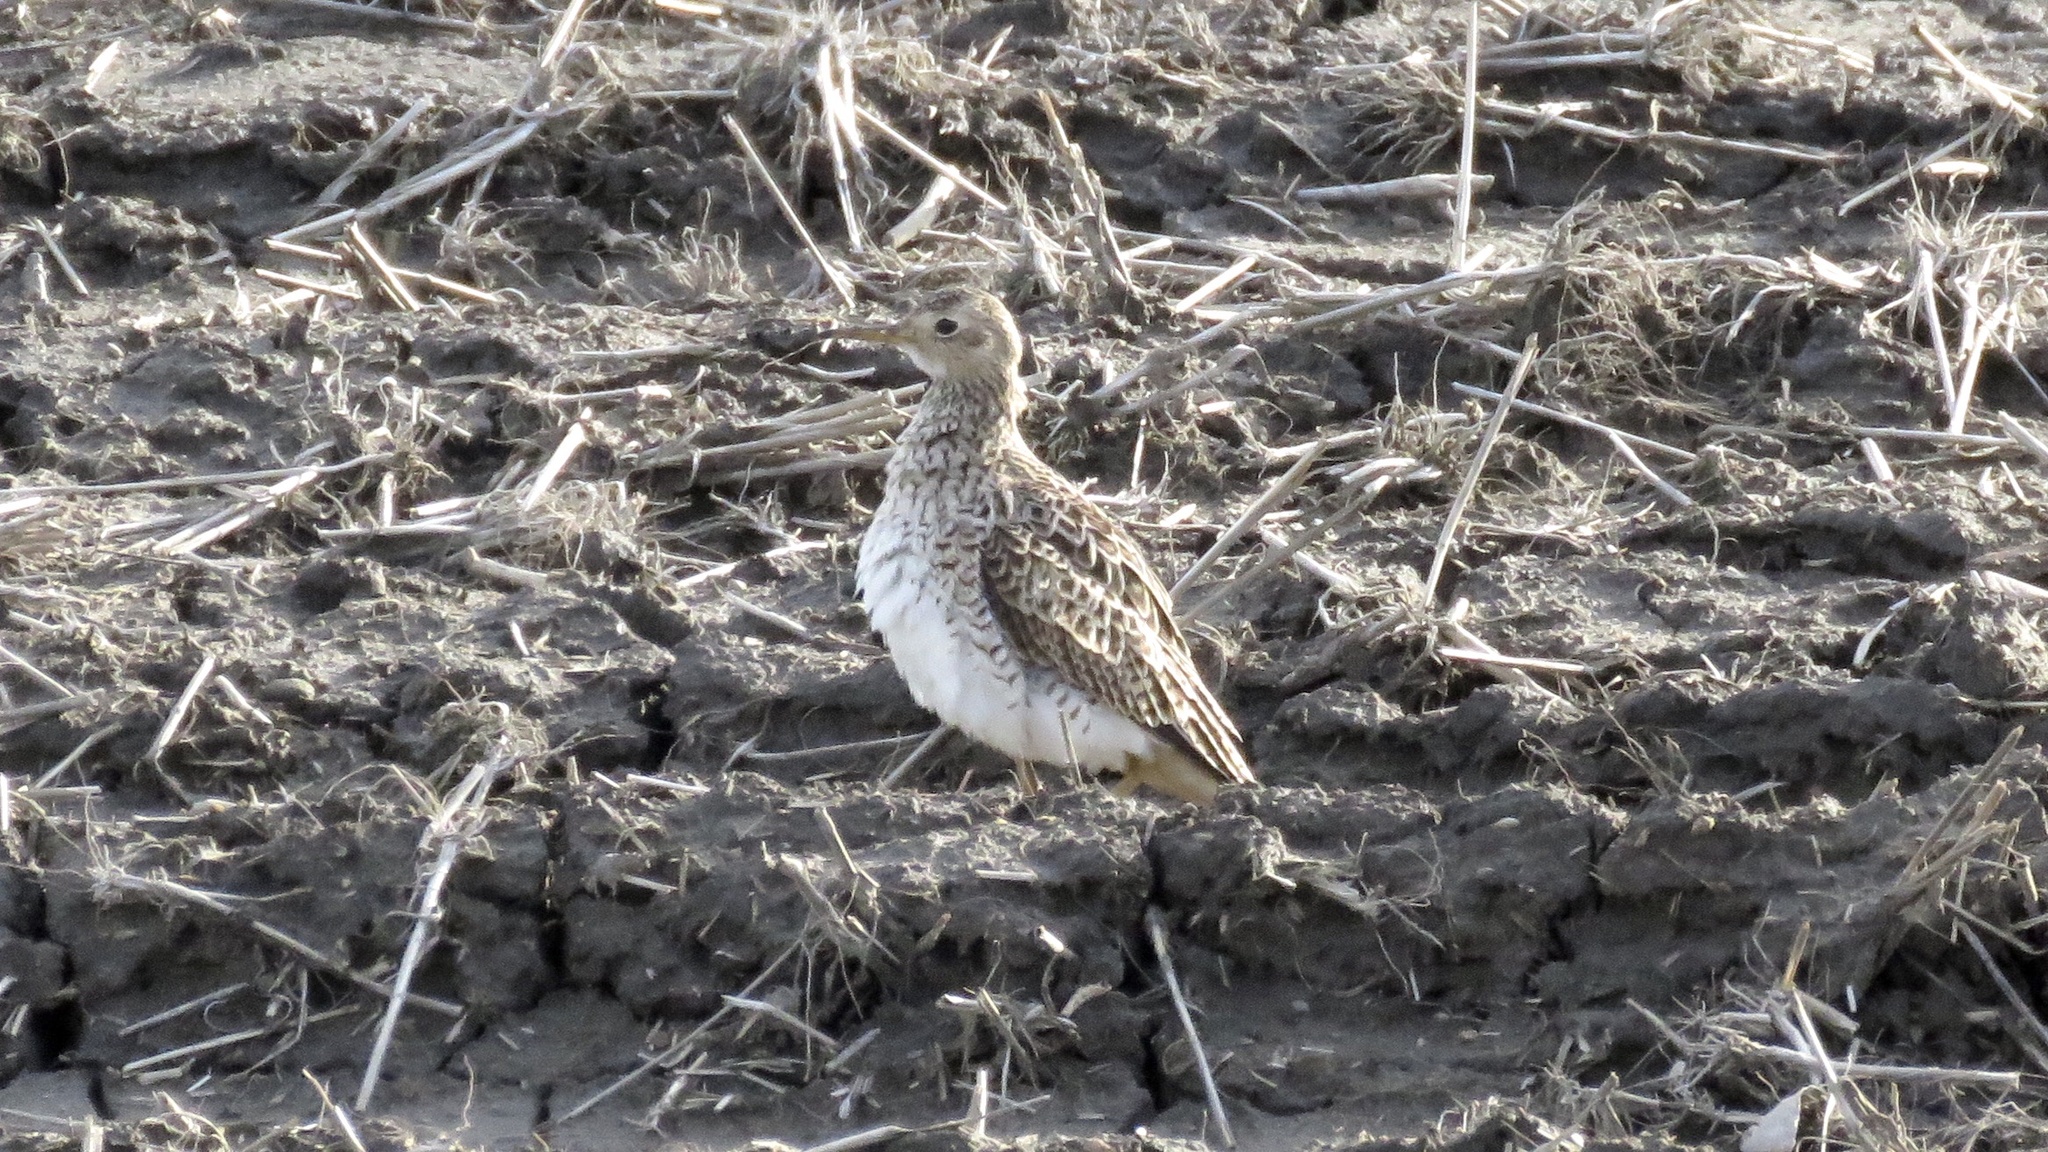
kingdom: Animalia
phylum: Chordata
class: Aves
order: Charadriiformes
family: Scolopacidae
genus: Bartramia
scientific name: Bartramia longicauda
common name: Upland sandpiper
